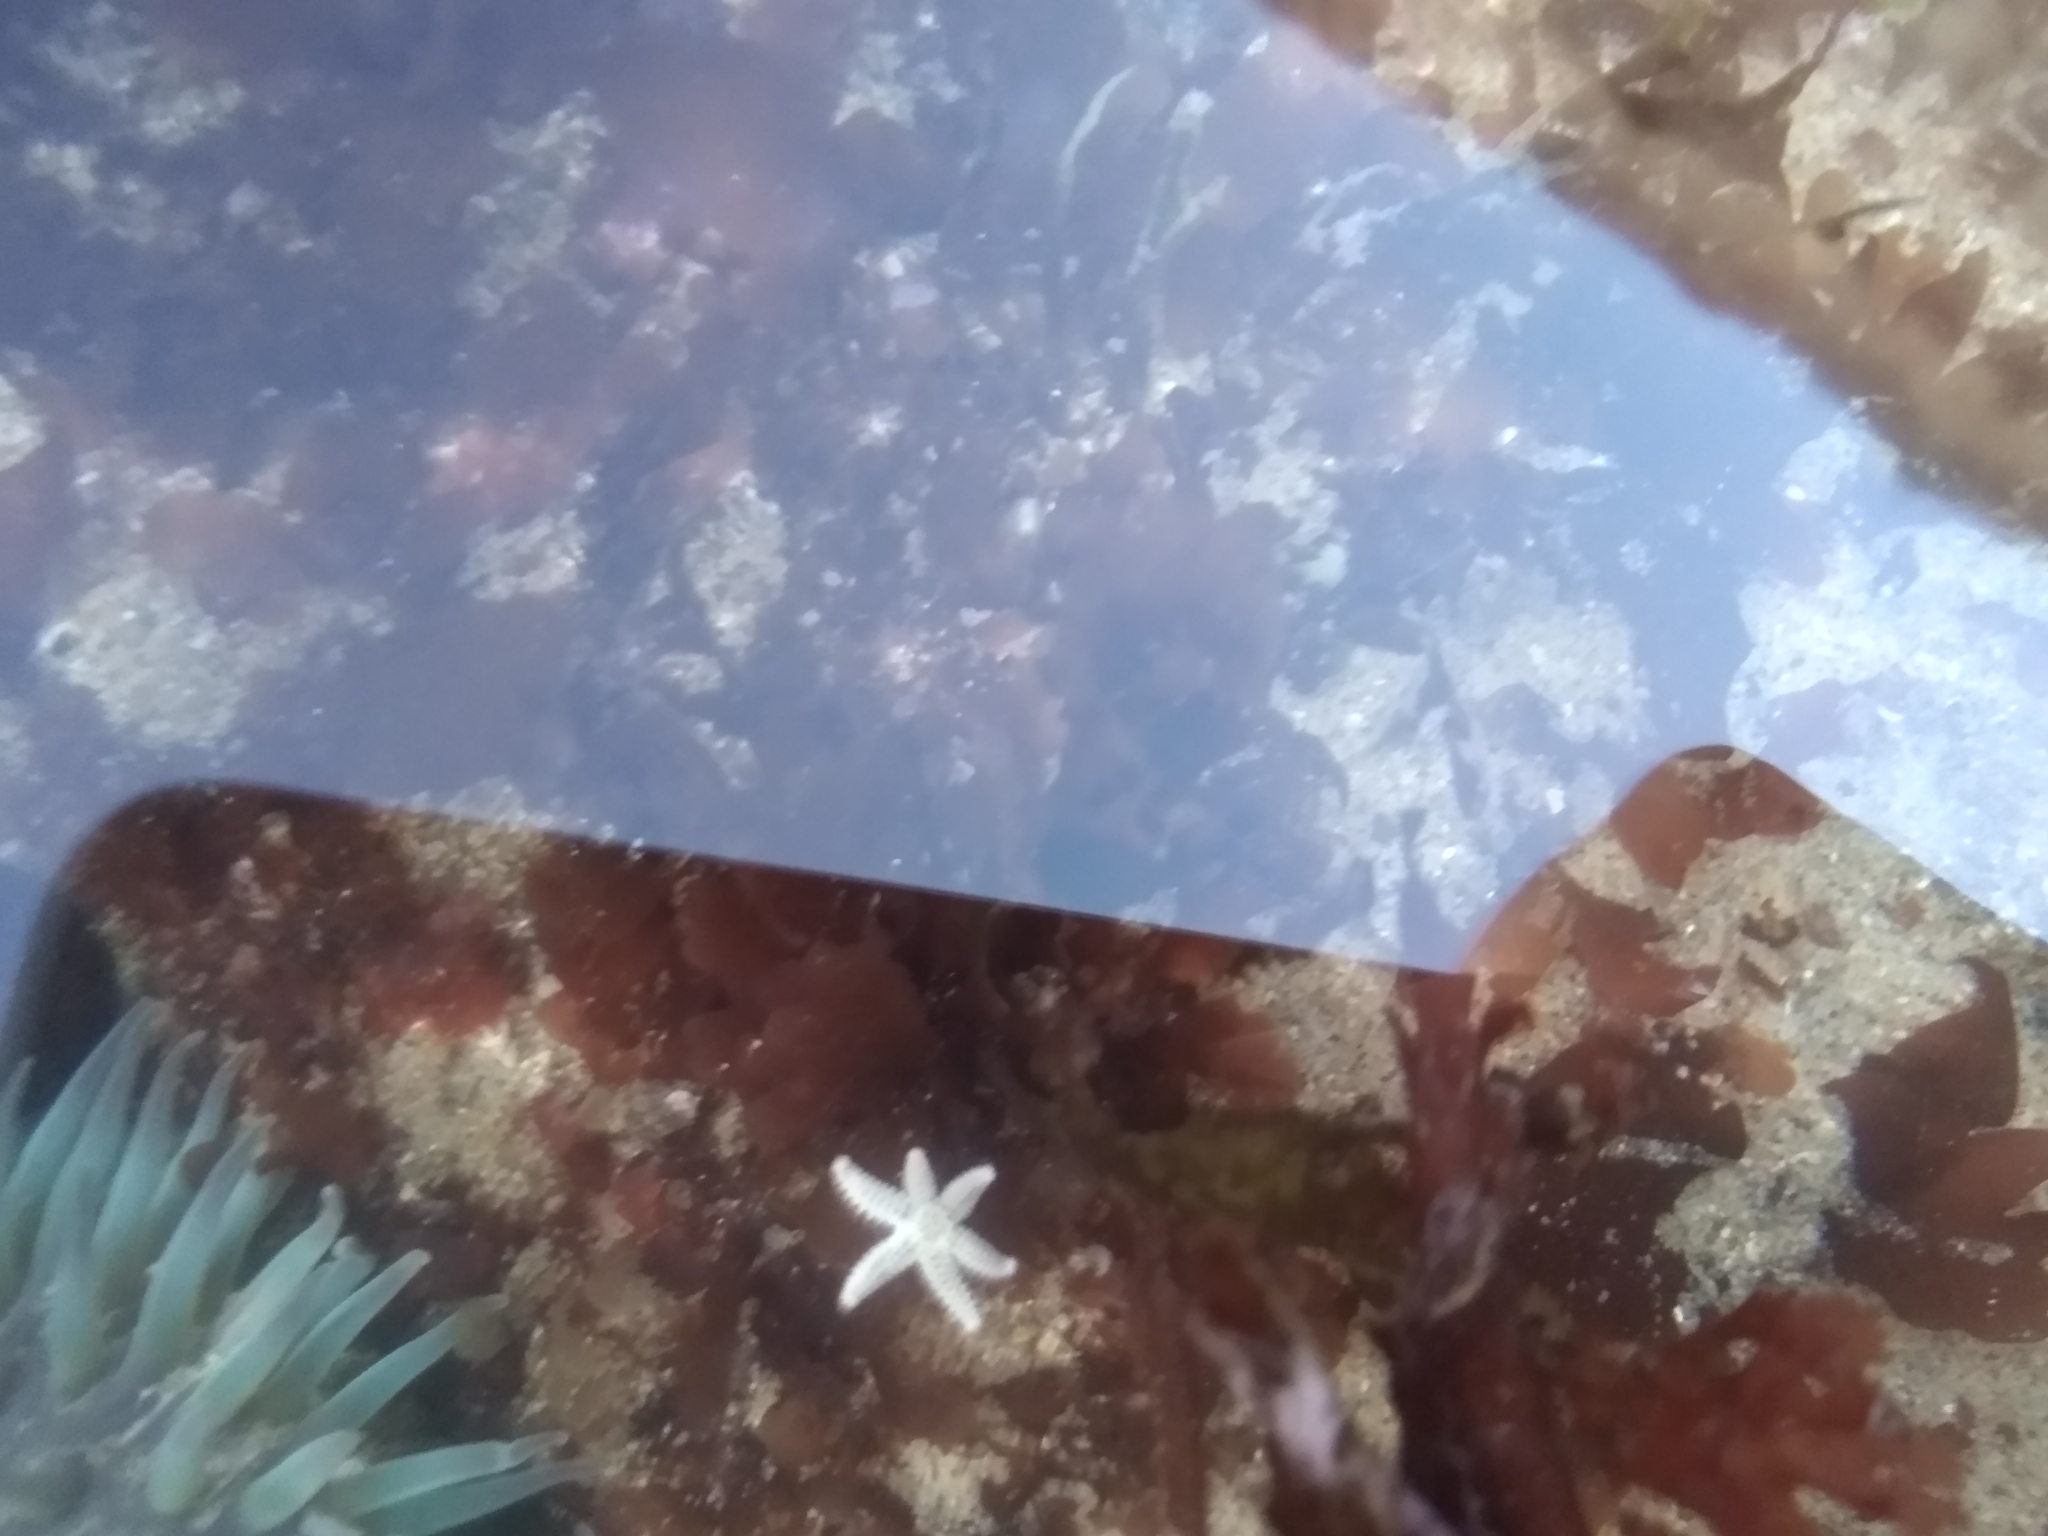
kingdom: Animalia
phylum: Echinodermata
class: Asteroidea
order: Forcipulatida
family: Asteriidae
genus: Leptasterias
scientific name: Leptasterias hexactis
